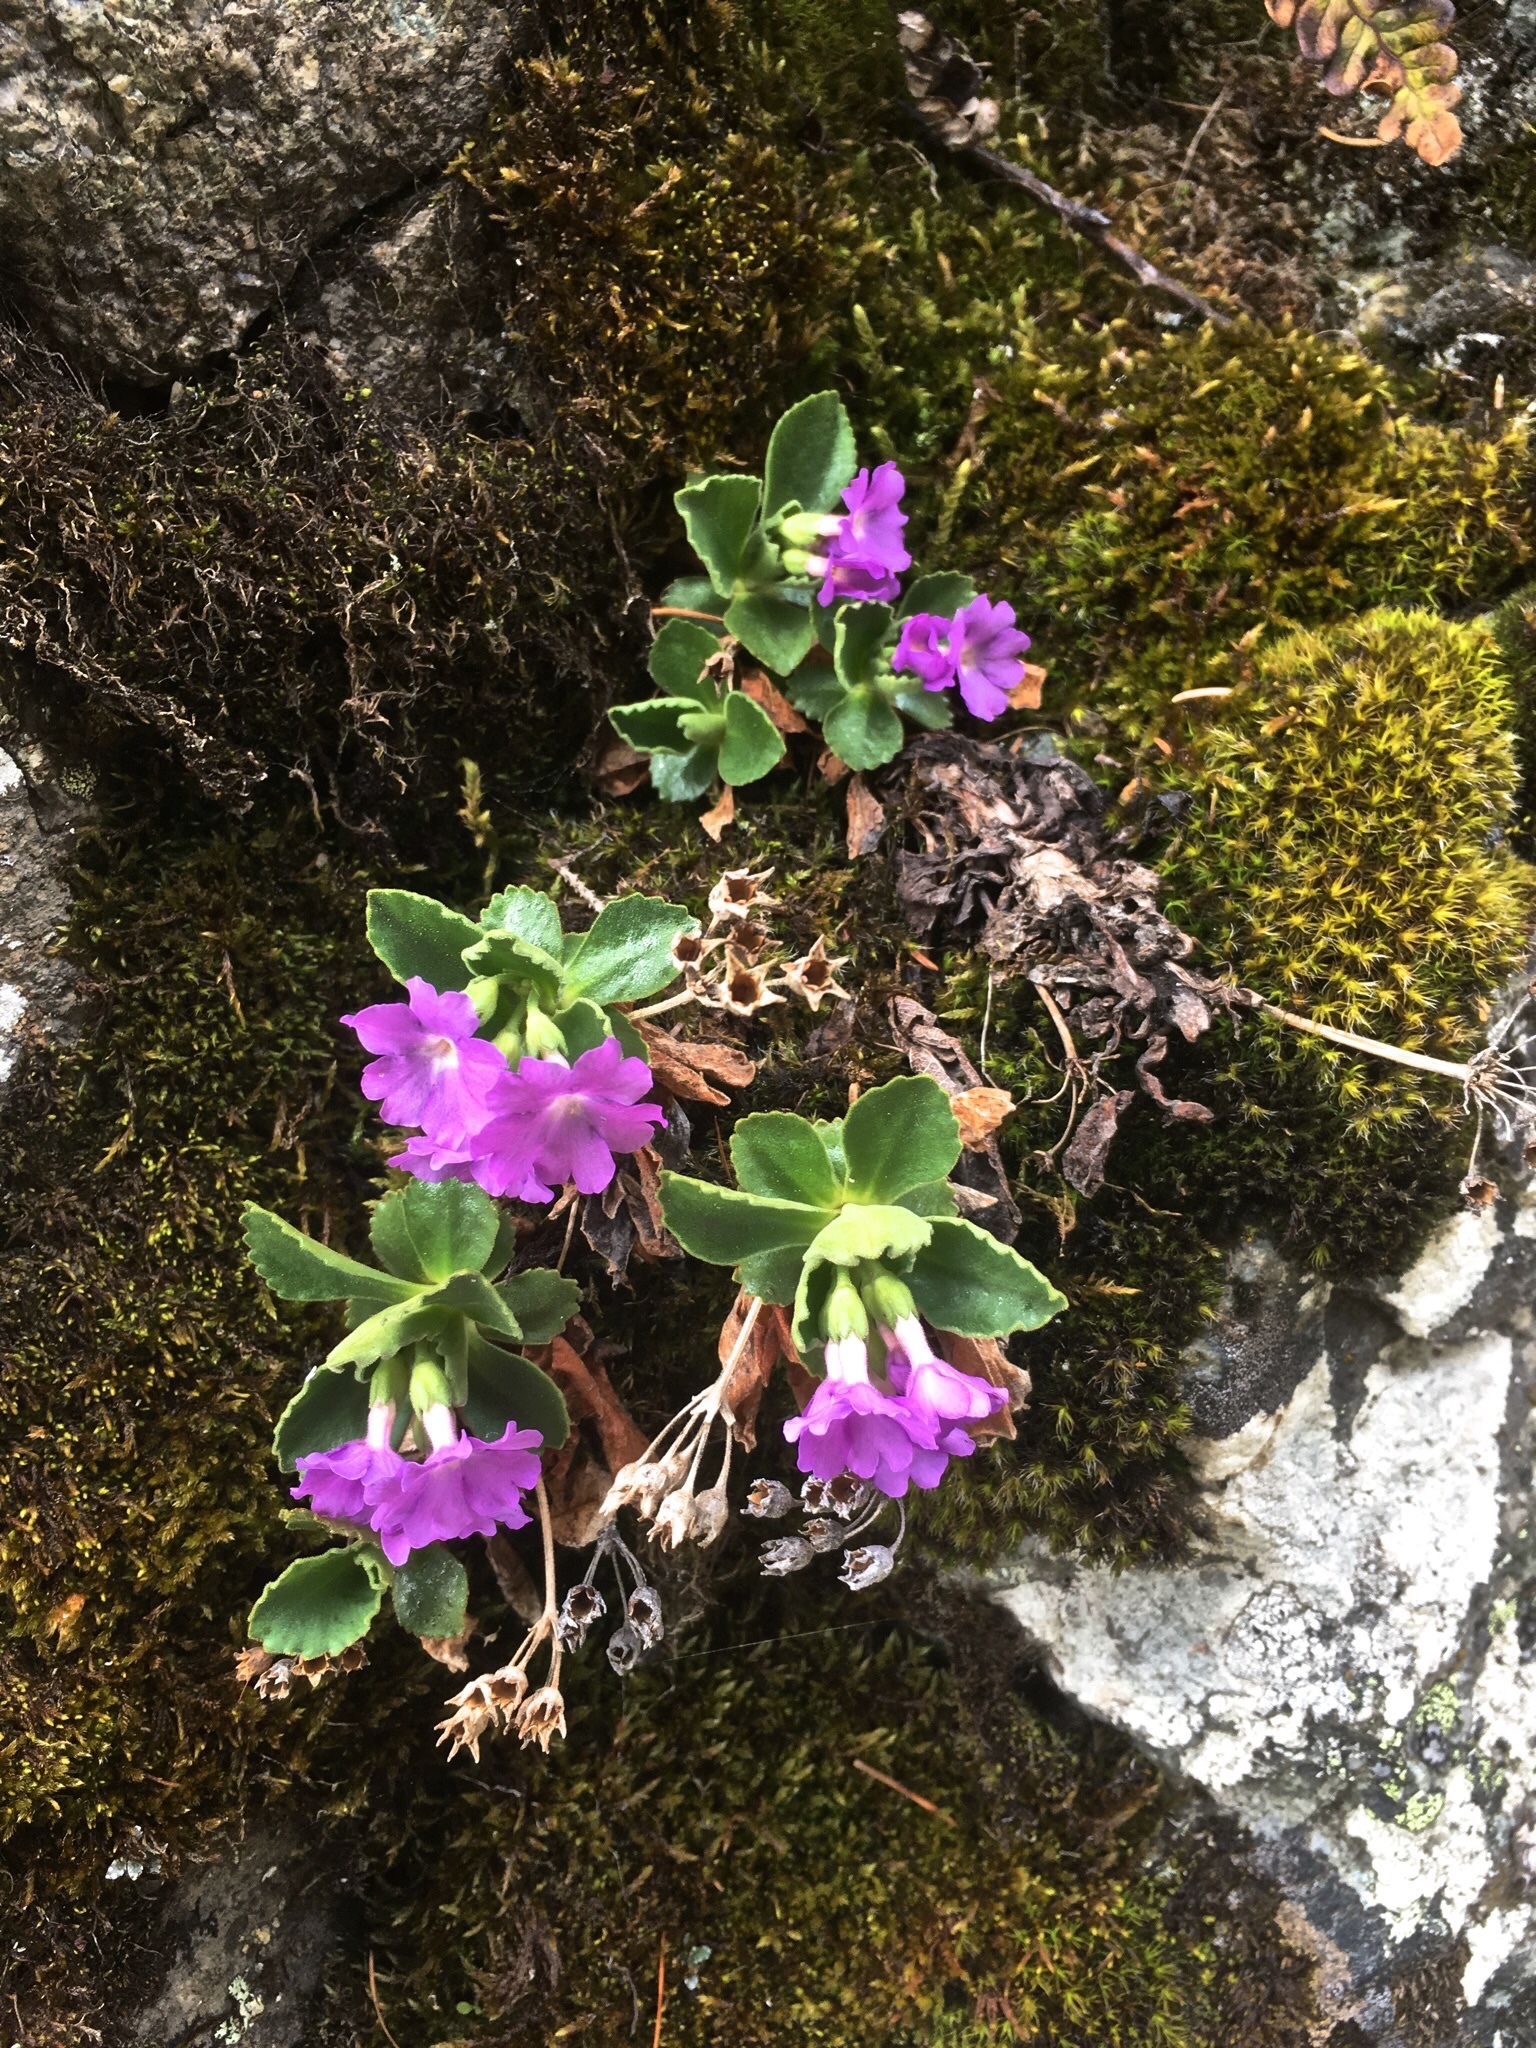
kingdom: Plantae
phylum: Tracheophyta
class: Magnoliopsida
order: Ericales
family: Primulaceae
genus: Primula
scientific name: Primula hirsuta
